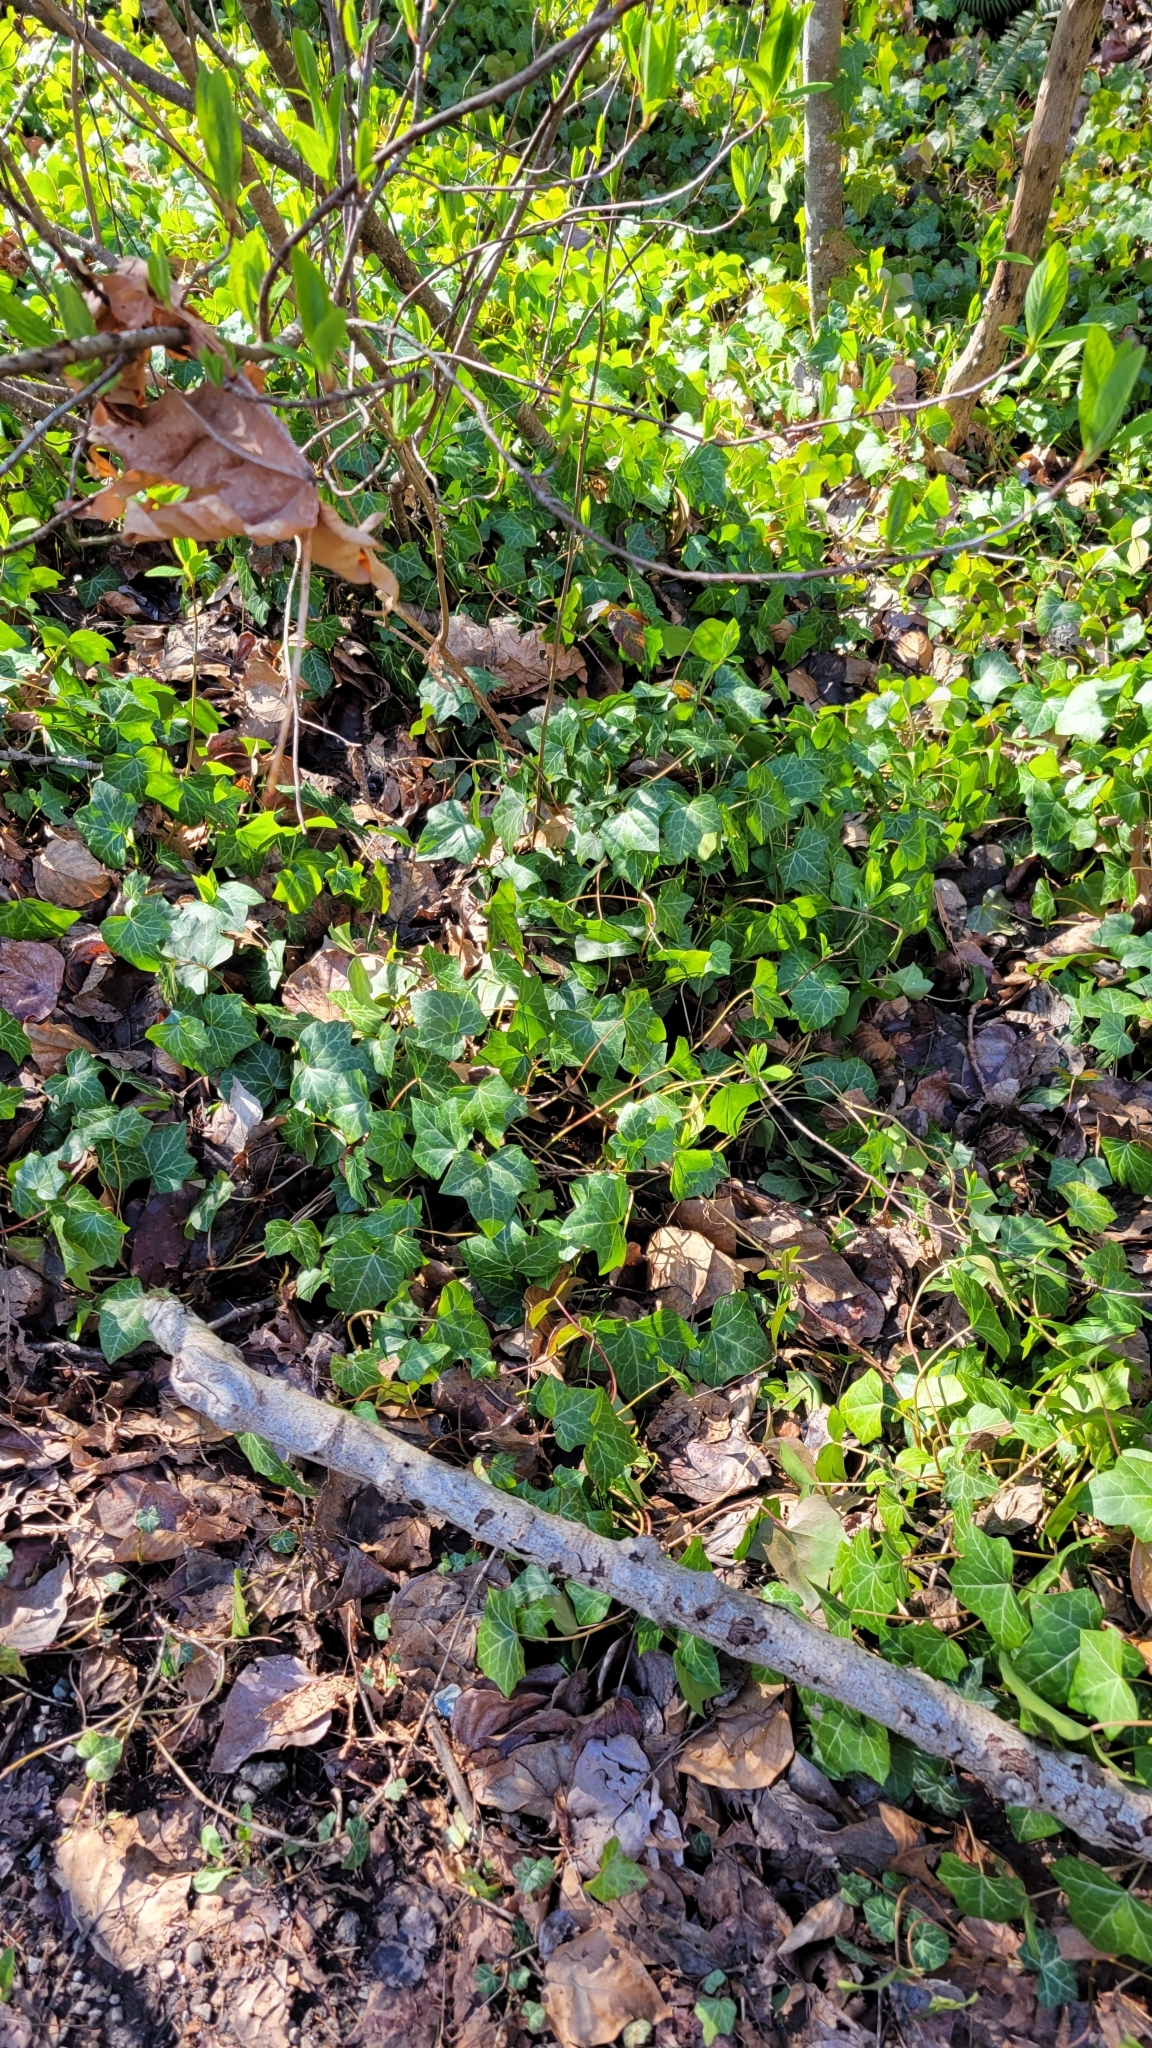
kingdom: Plantae
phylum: Tracheophyta
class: Magnoliopsida
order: Apiales
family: Araliaceae
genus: Hedera
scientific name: Hedera helix
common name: Ivy
